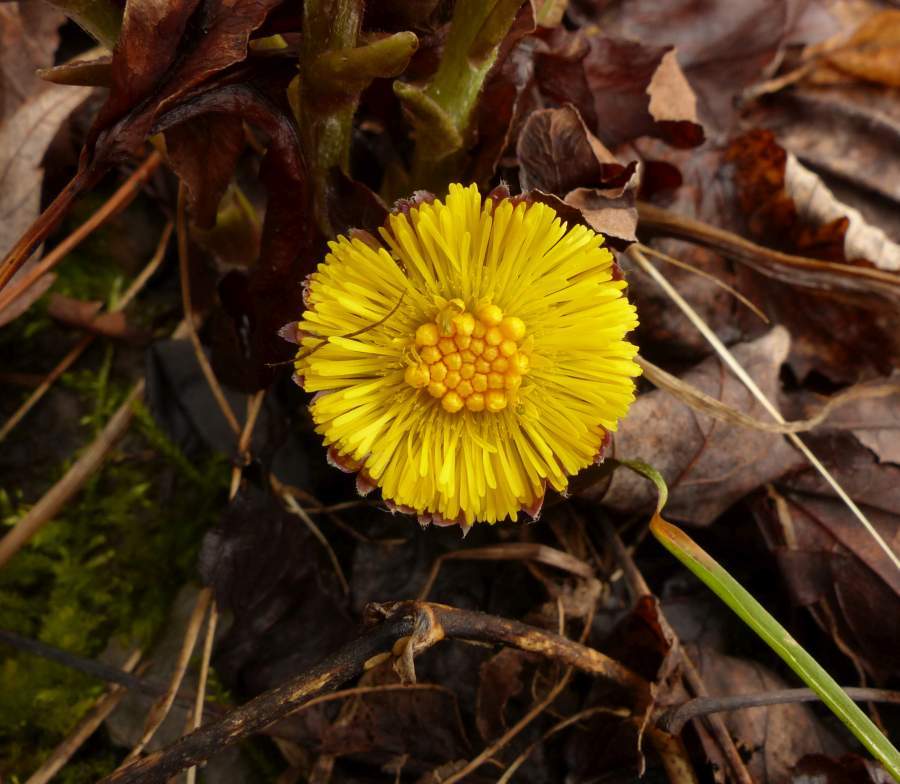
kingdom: Plantae
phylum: Tracheophyta
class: Magnoliopsida
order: Asterales
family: Asteraceae
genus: Tussilago
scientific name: Tussilago farfara
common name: Coltsfoot
